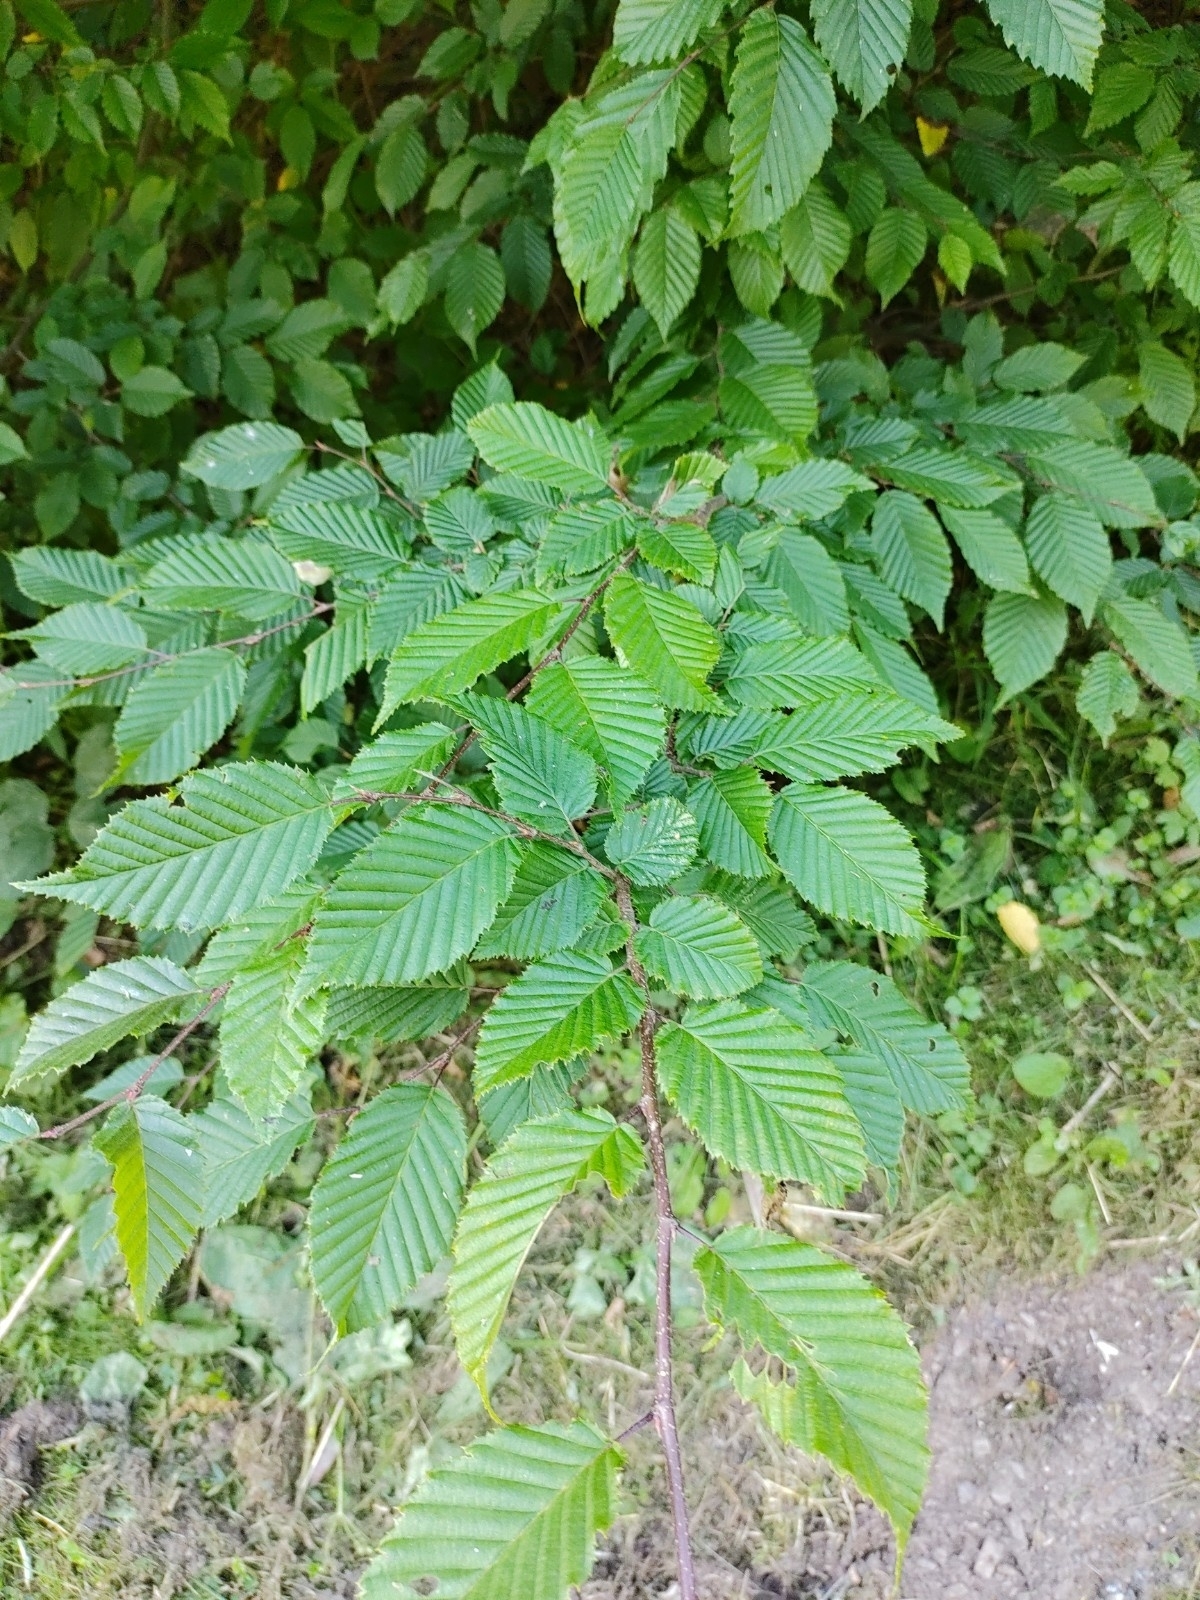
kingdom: Plantae
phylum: Tracheophyta
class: Magnoliopsida
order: Fagales
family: Betulaceae
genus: Carpinus
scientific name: Carpinus betulus
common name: Hornbeam
